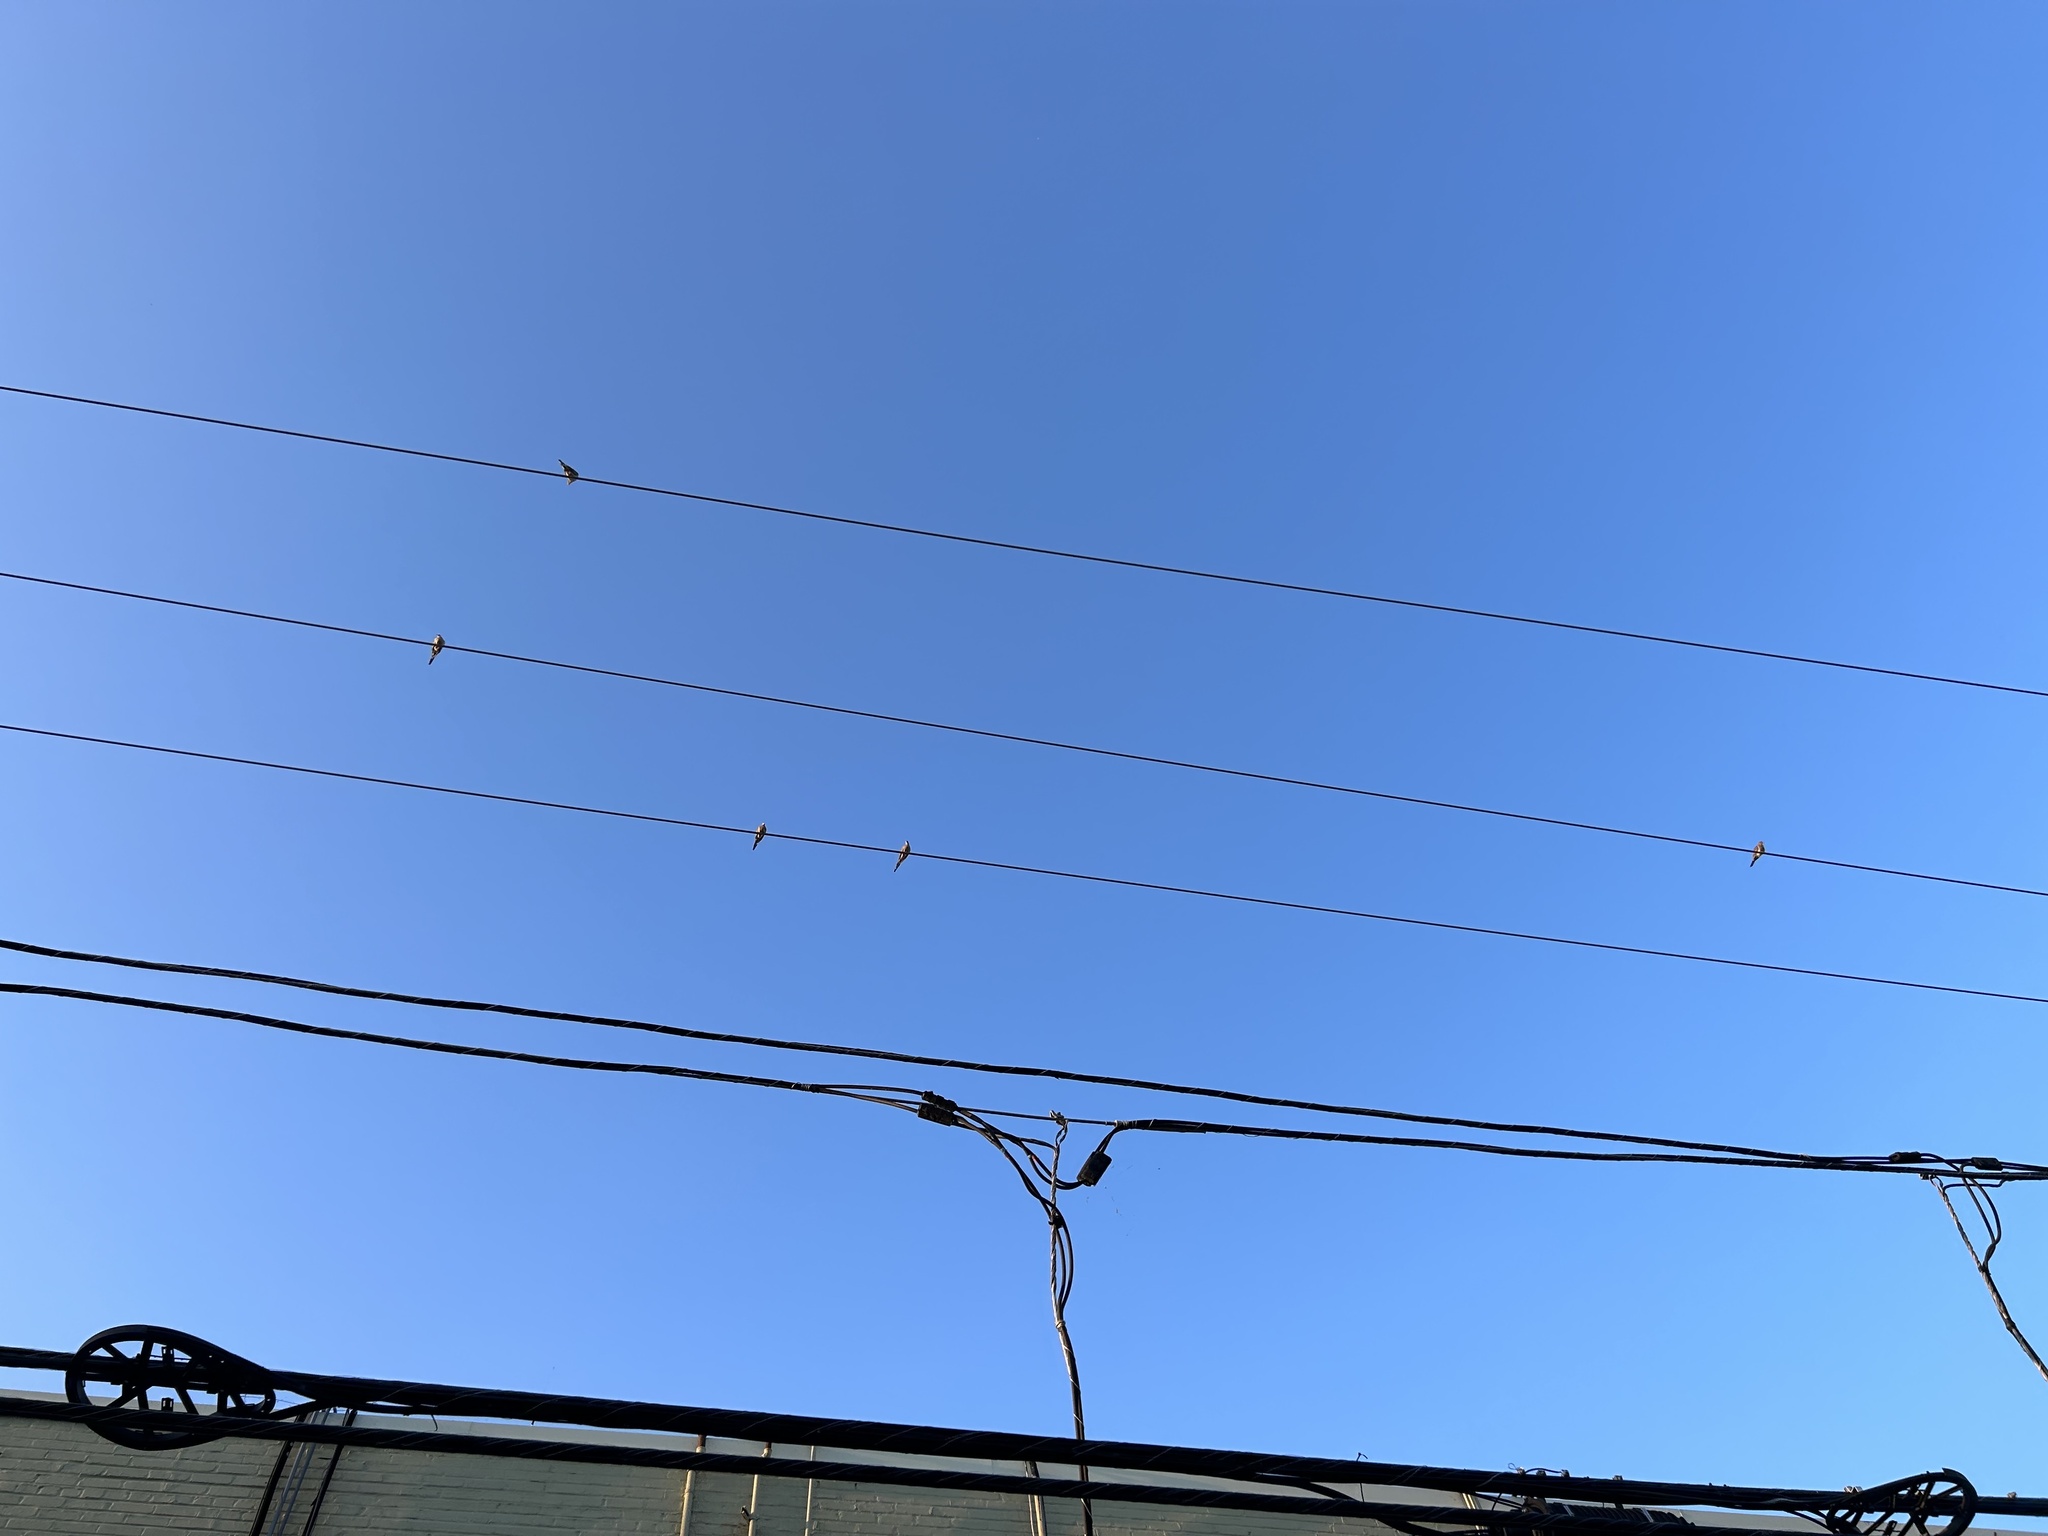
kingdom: Animalia
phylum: Chordata
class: Aves
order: Columbiformes
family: Columbidae
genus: Zenaida
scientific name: Zenaida macroura
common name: Mourning dove
